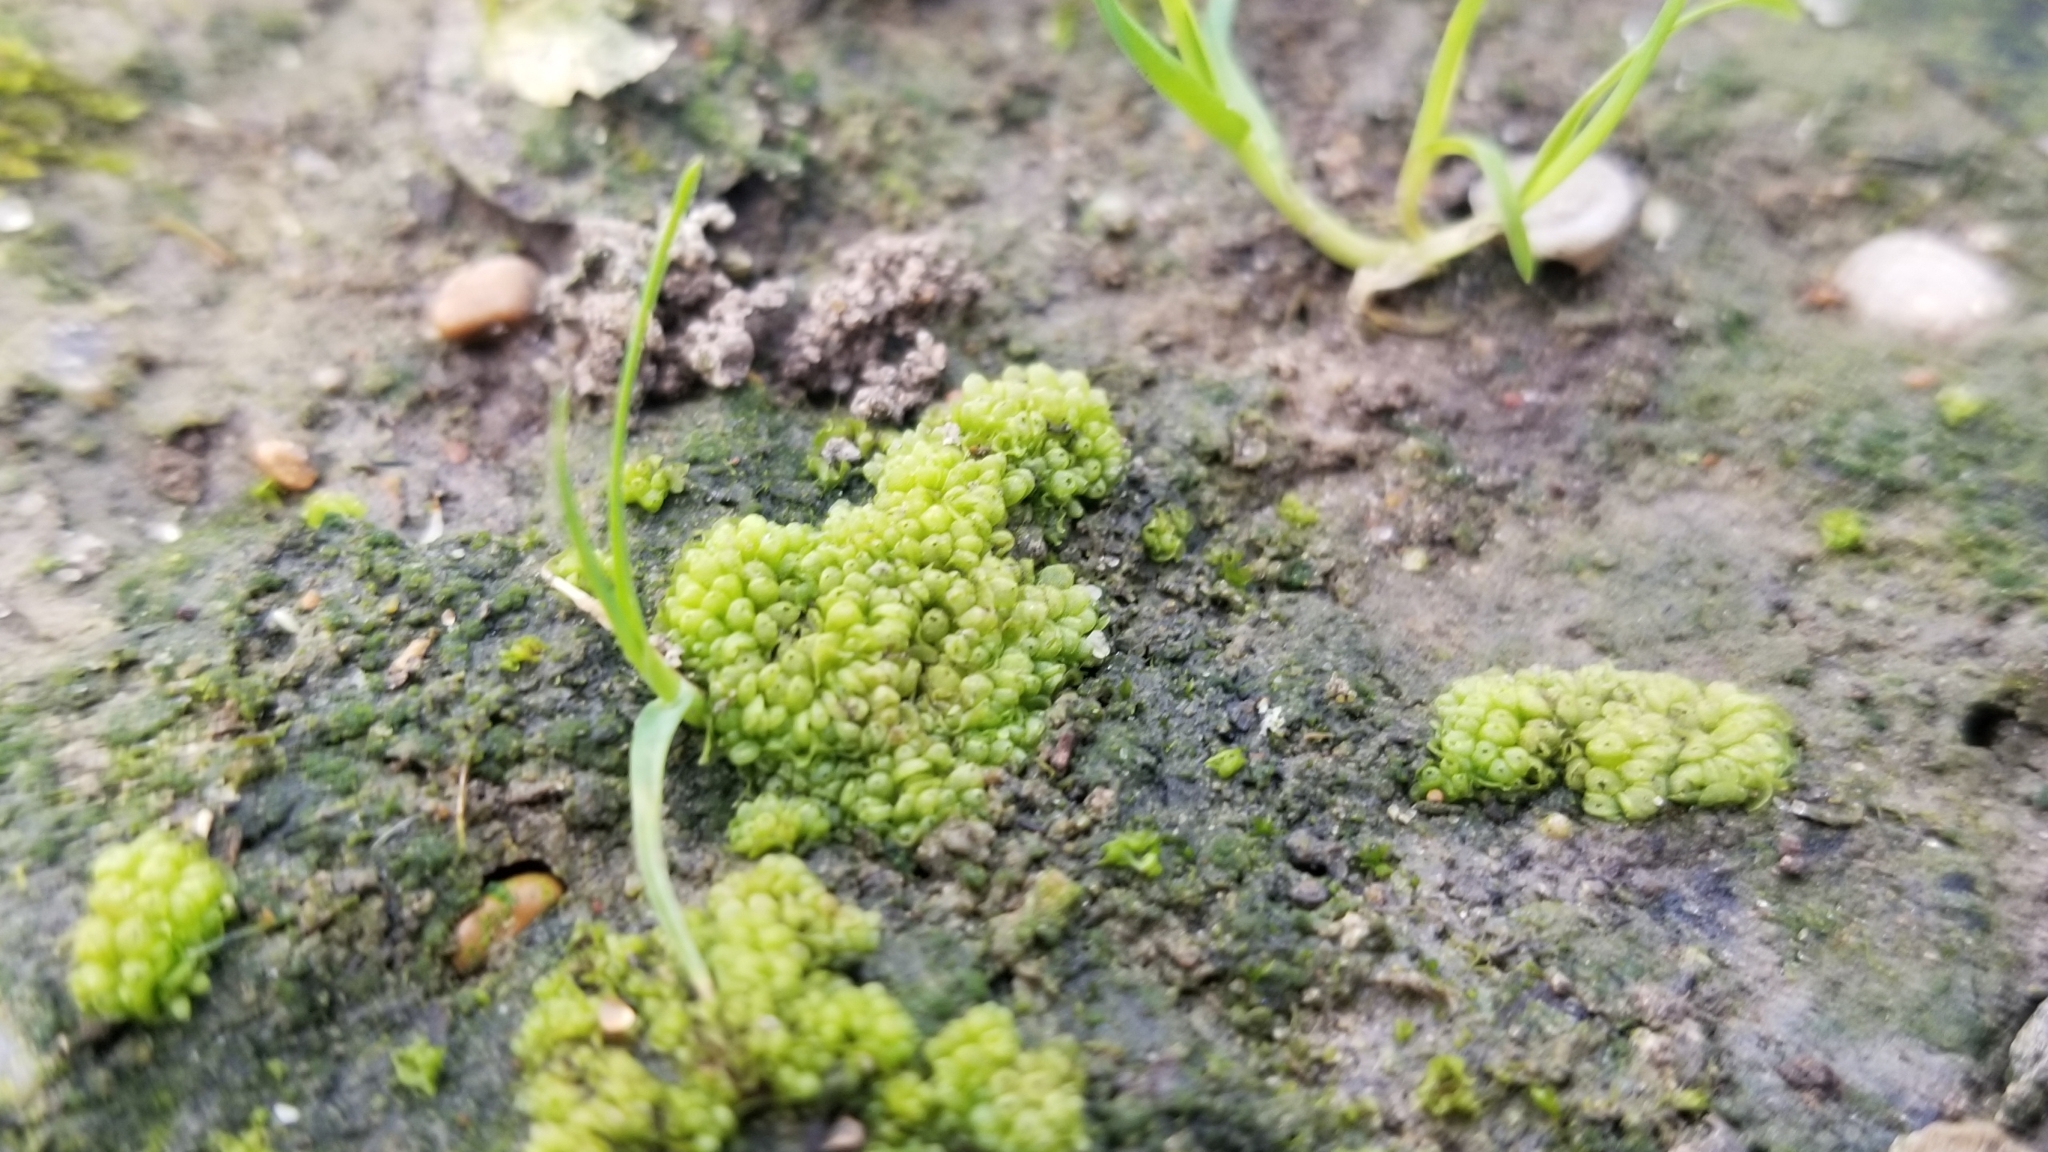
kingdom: Plantae
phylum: Marchantiophyta
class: Marchantiopsida
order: Sphaerocarpales
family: Sphaerocarpaceae
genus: Sphaerocarpos
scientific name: Sphaerocarpos texanus
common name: Texas balloonwort
